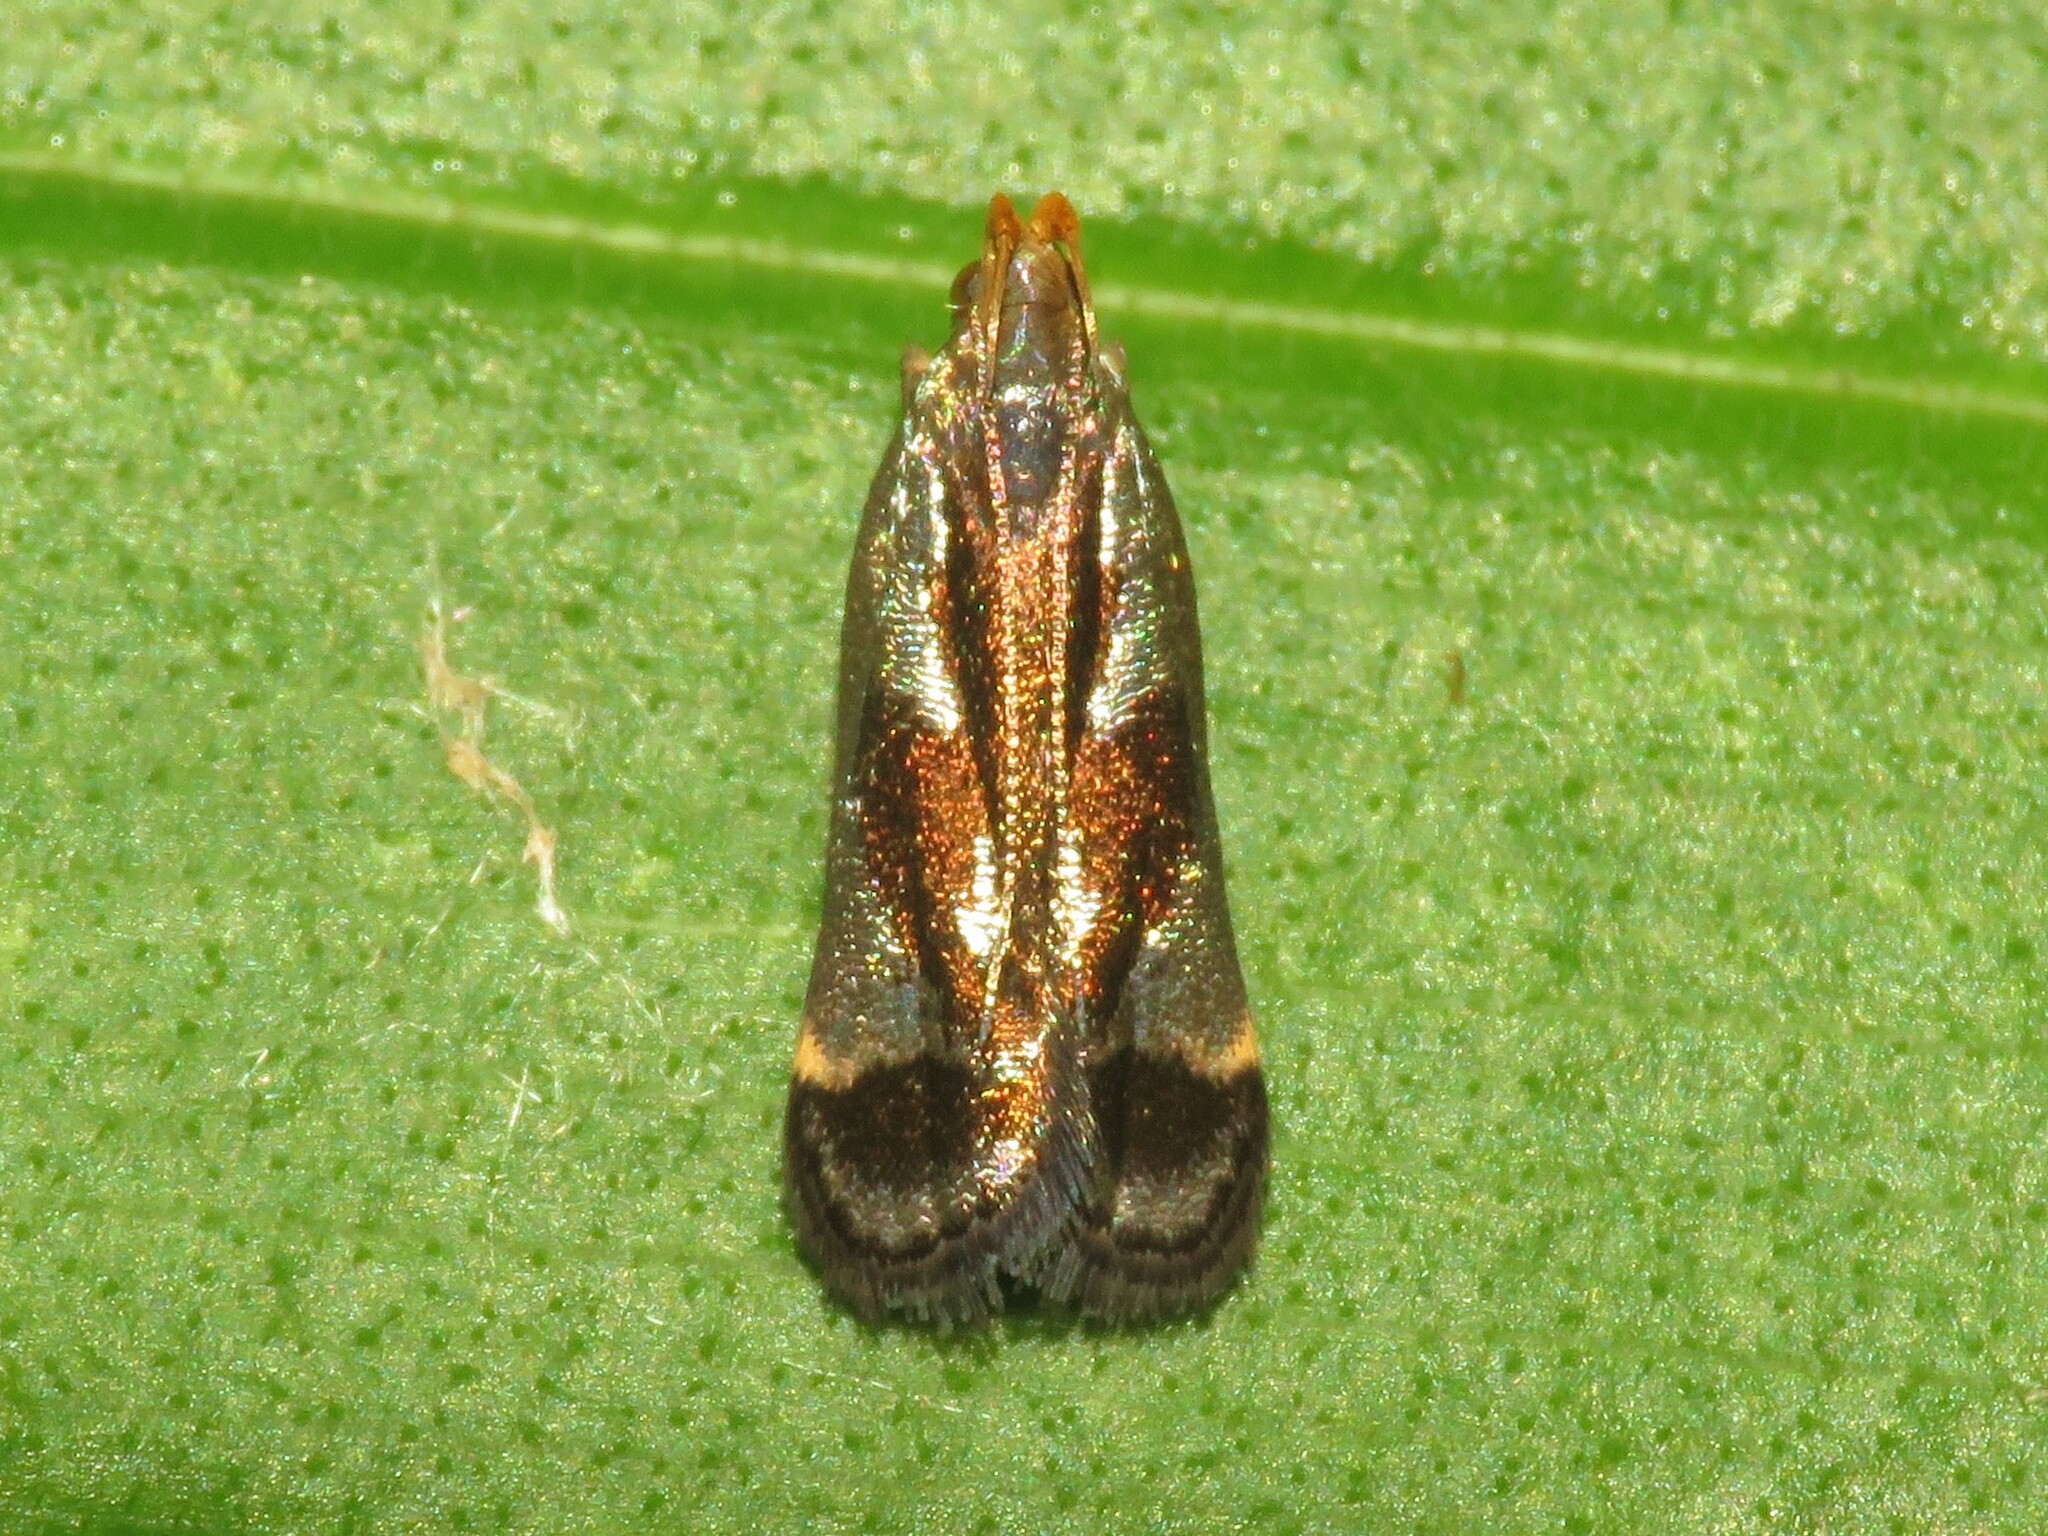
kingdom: Animalia
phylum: Arthropoda
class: Insecta
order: Lepidoptera
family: Gelechiidae
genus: Dichomeris
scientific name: Dichomeris ochripalpella
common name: Shining dichomeris moth
